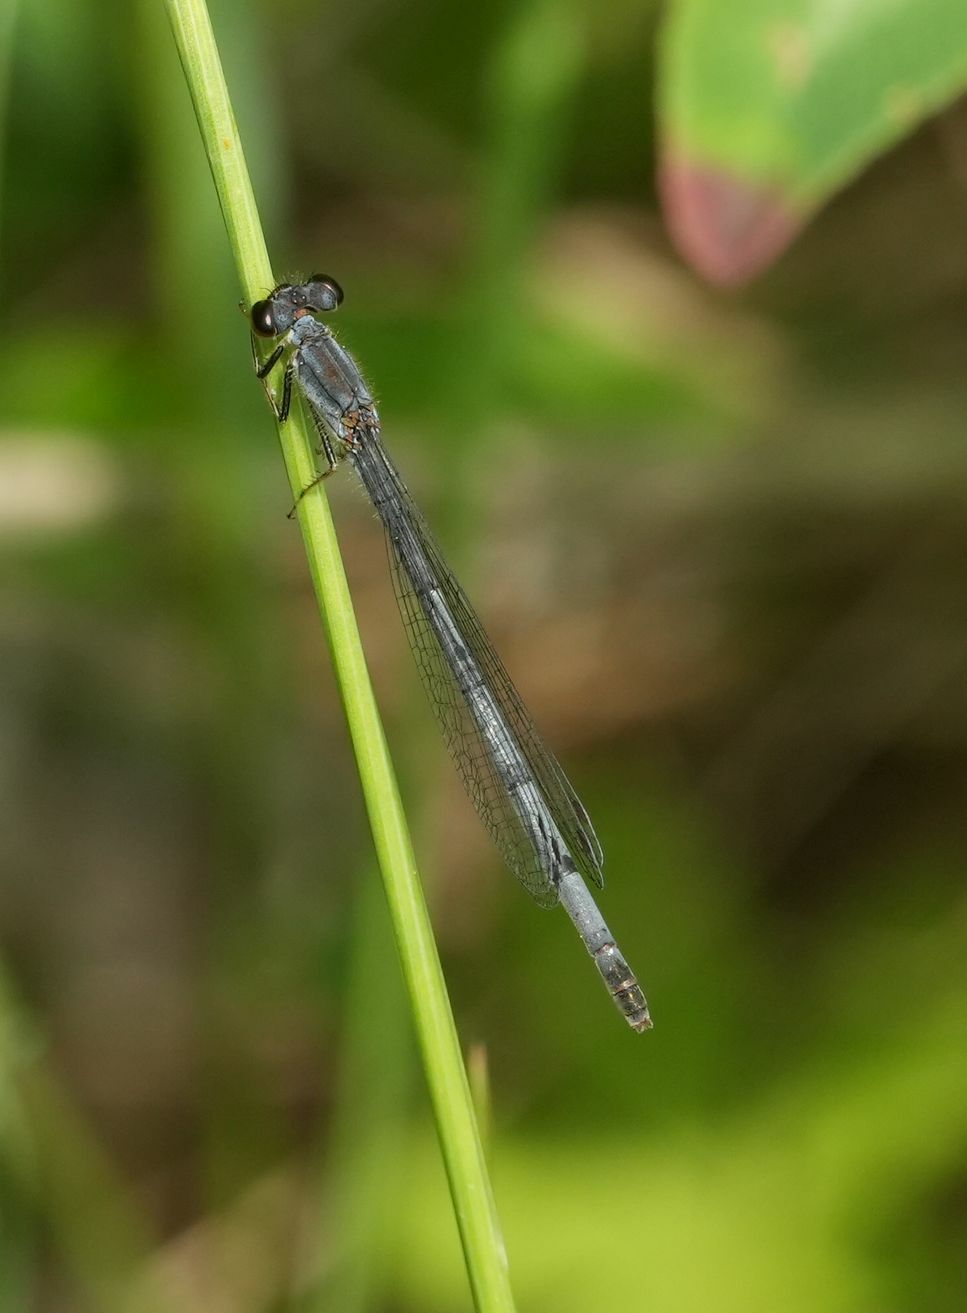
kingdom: Animalia
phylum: Arthropoda
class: Insecta
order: Odonata
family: Coenagrionidae
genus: Ischnura
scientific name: Ischnura verticalis
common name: Eastern forktail
